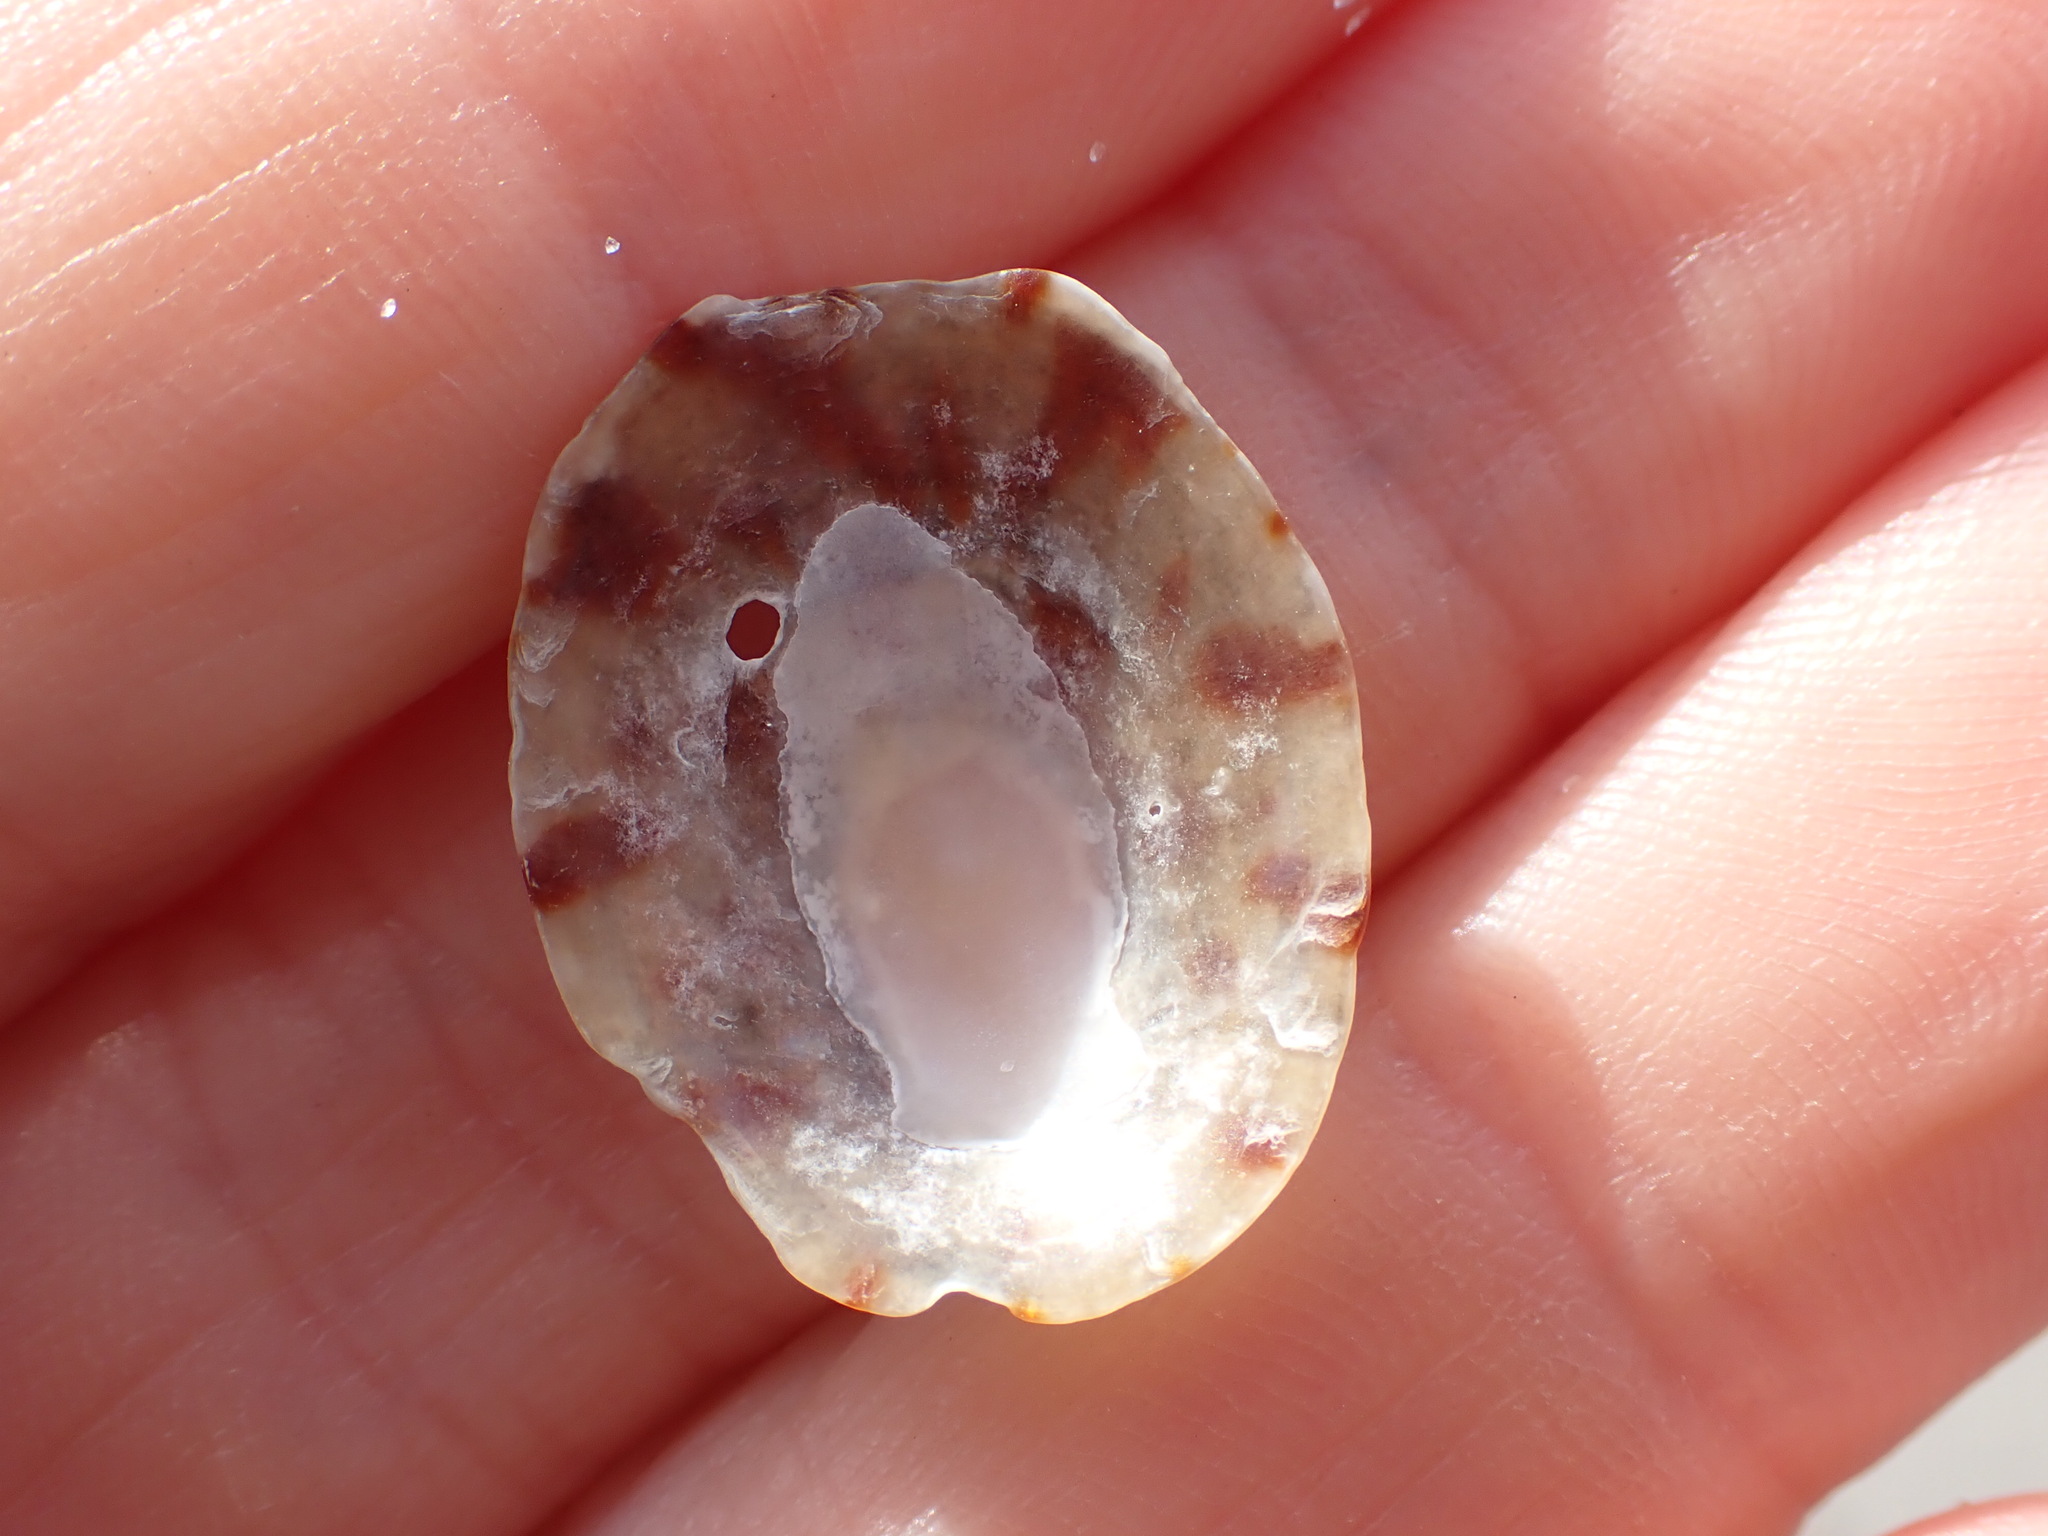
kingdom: Animalia
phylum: Mollusca
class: Gastropoda
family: Nacellidae
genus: Cellana
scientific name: Cellana radians
